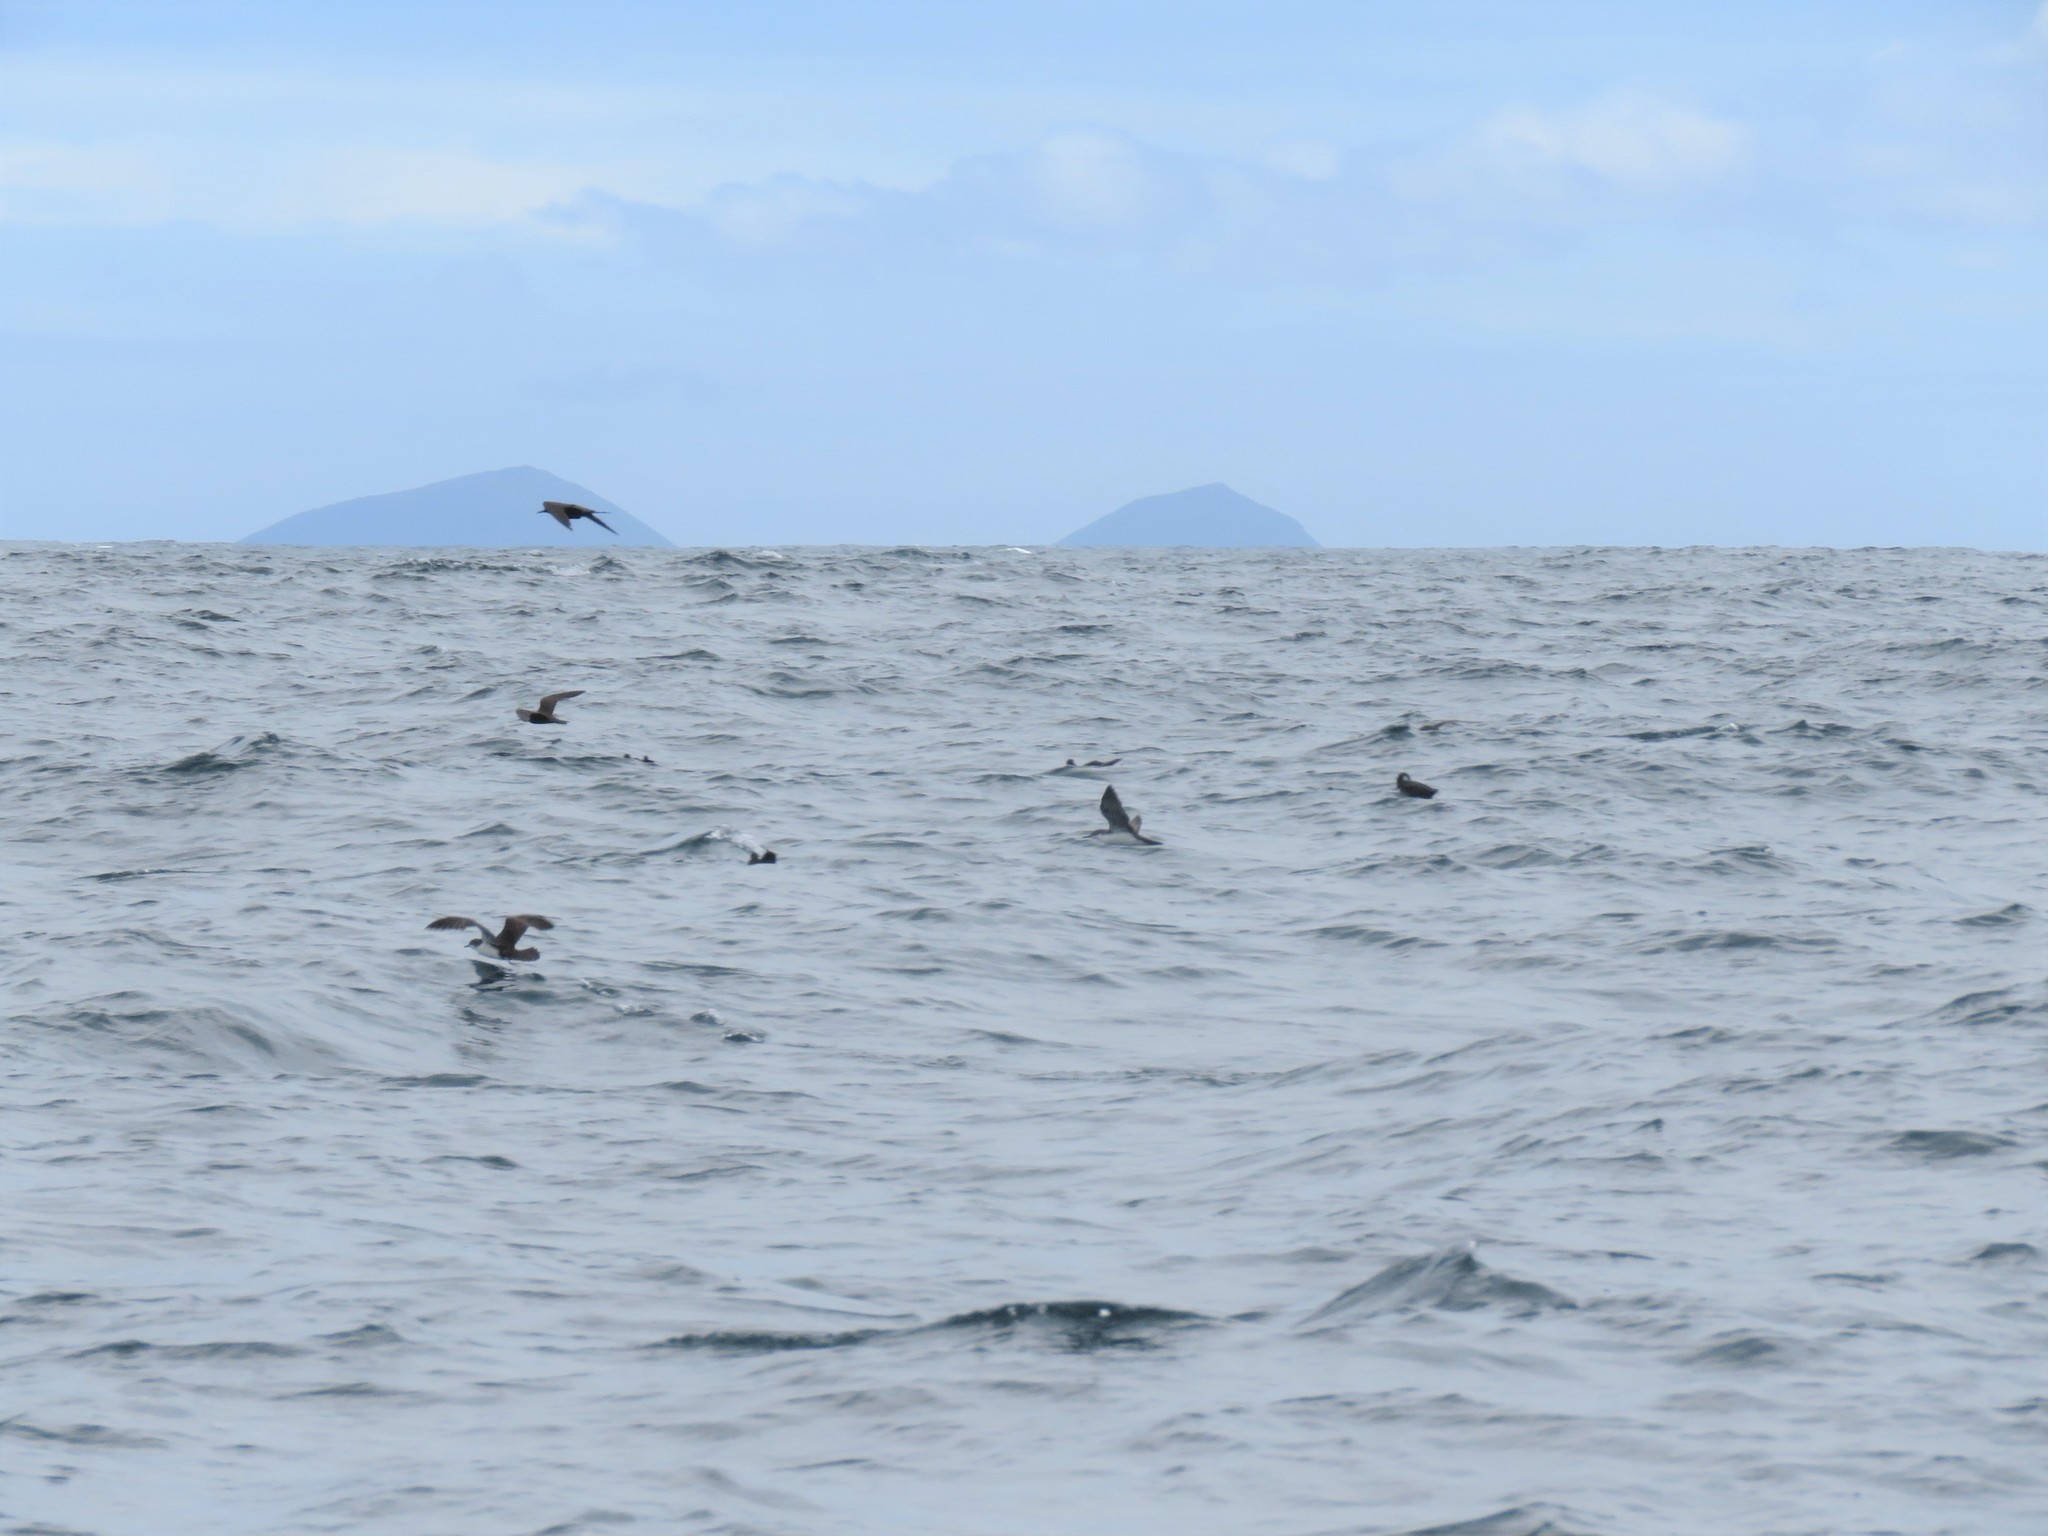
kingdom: Animalia
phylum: Chordata
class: Aves
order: Procellariiformes
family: Procellariidae
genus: Puffinus
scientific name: Puffinus subalaris
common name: Galapagos shearwater
